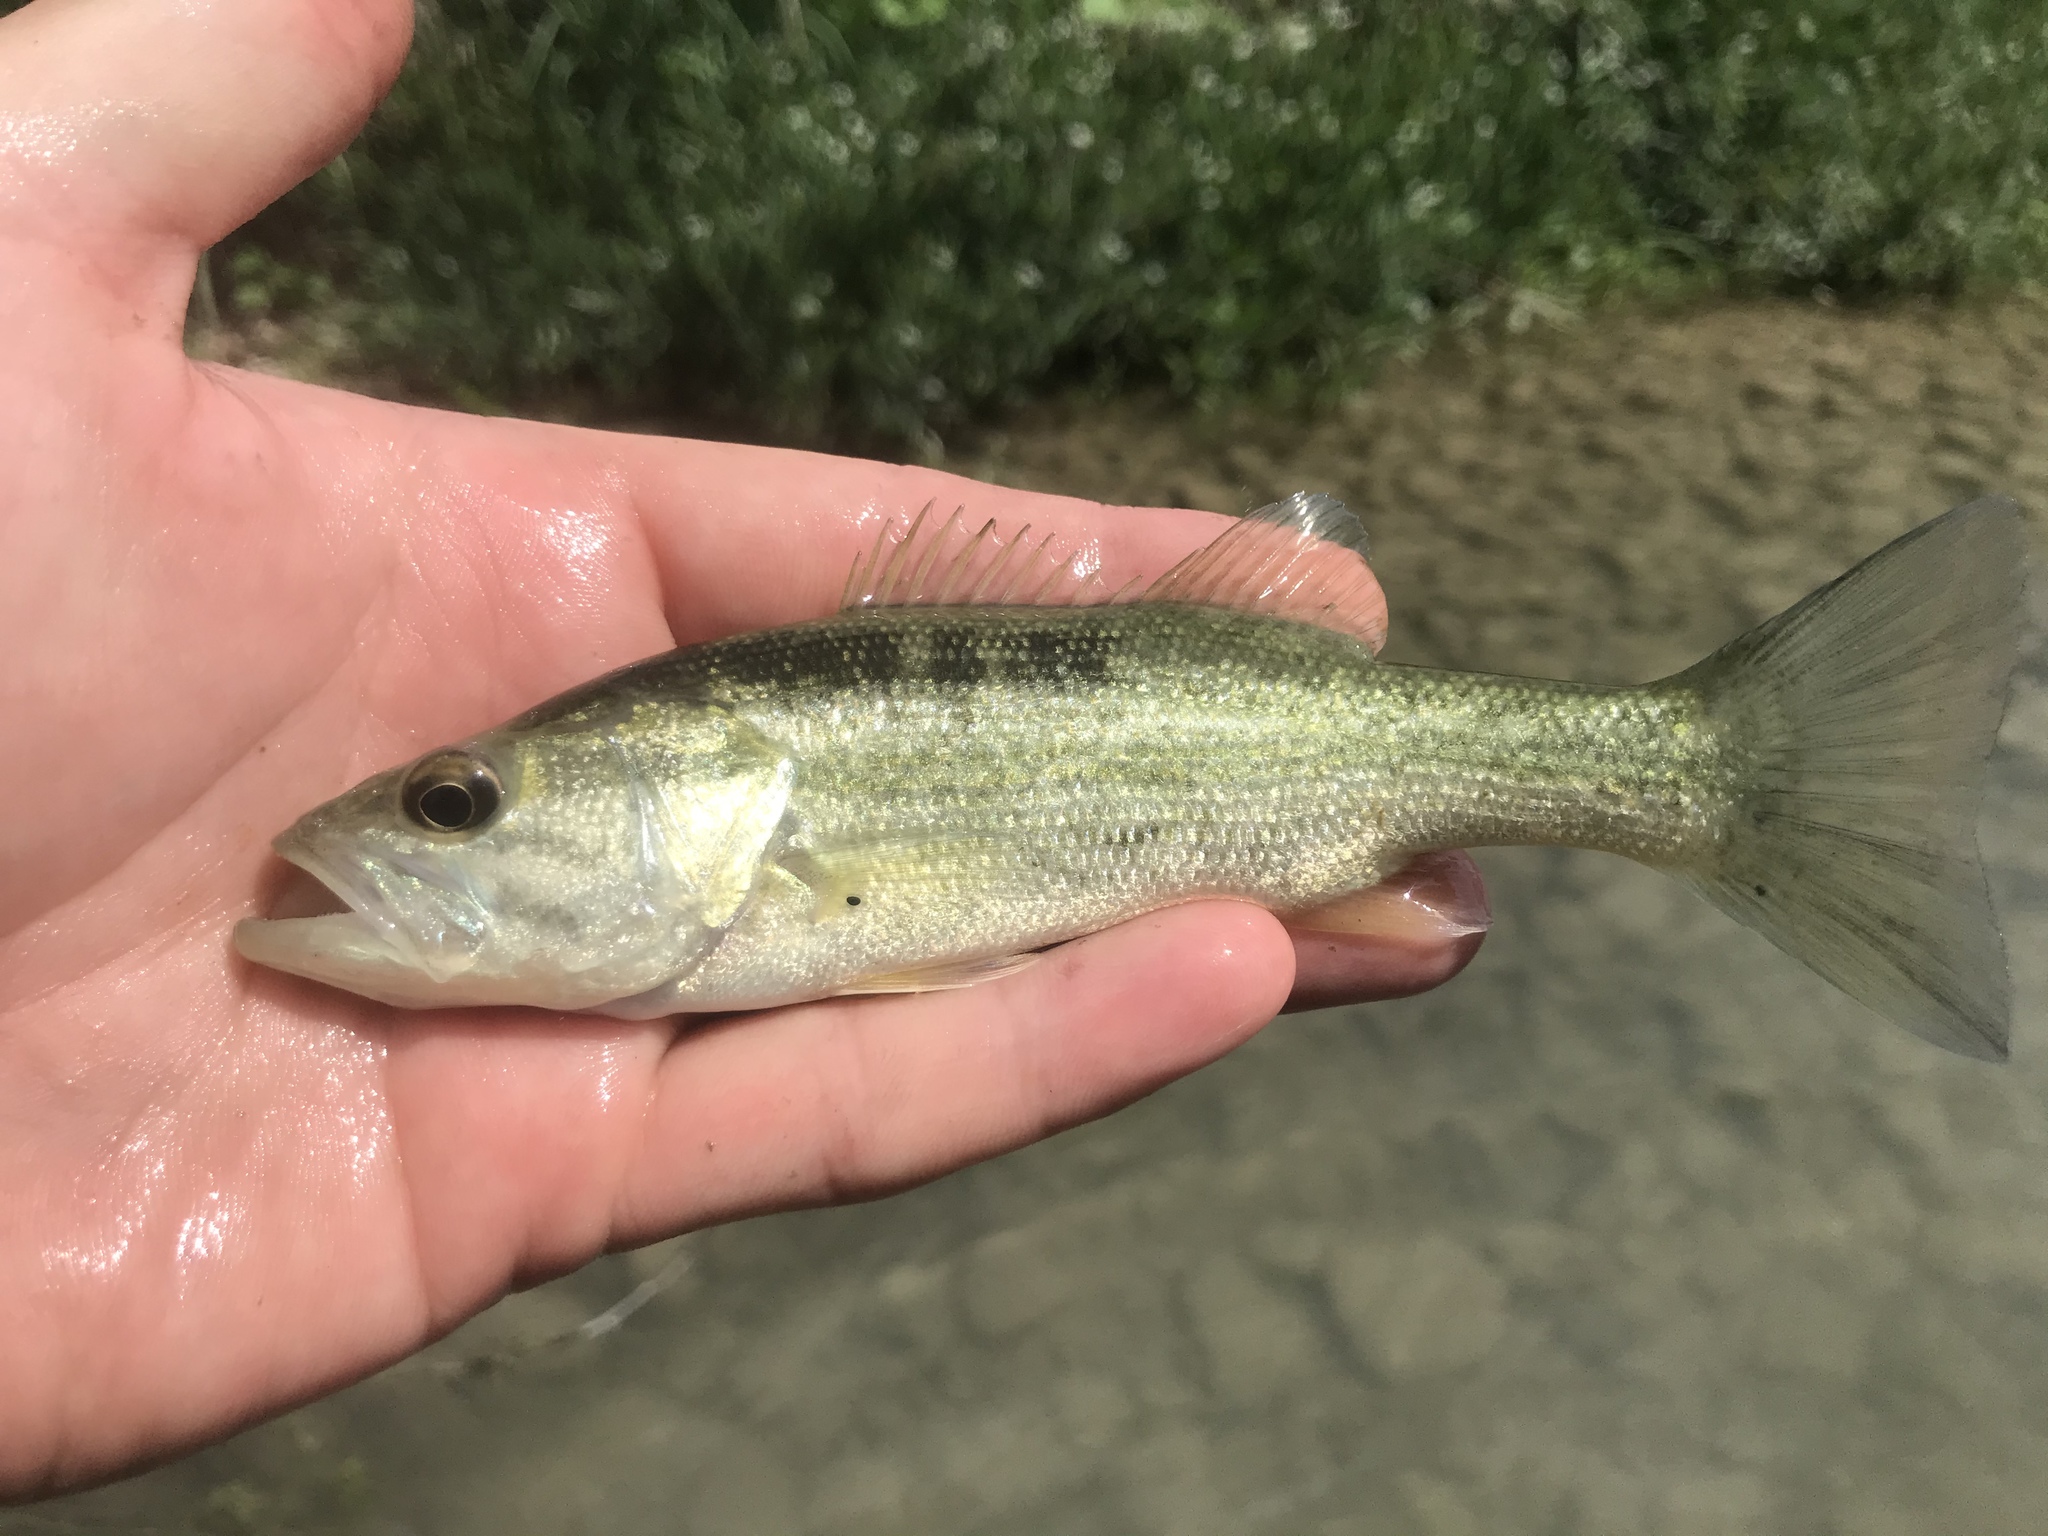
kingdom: Animalia
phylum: Chordata
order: Perciformes
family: Centrarchidae
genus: Micropterus
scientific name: Micropterus
